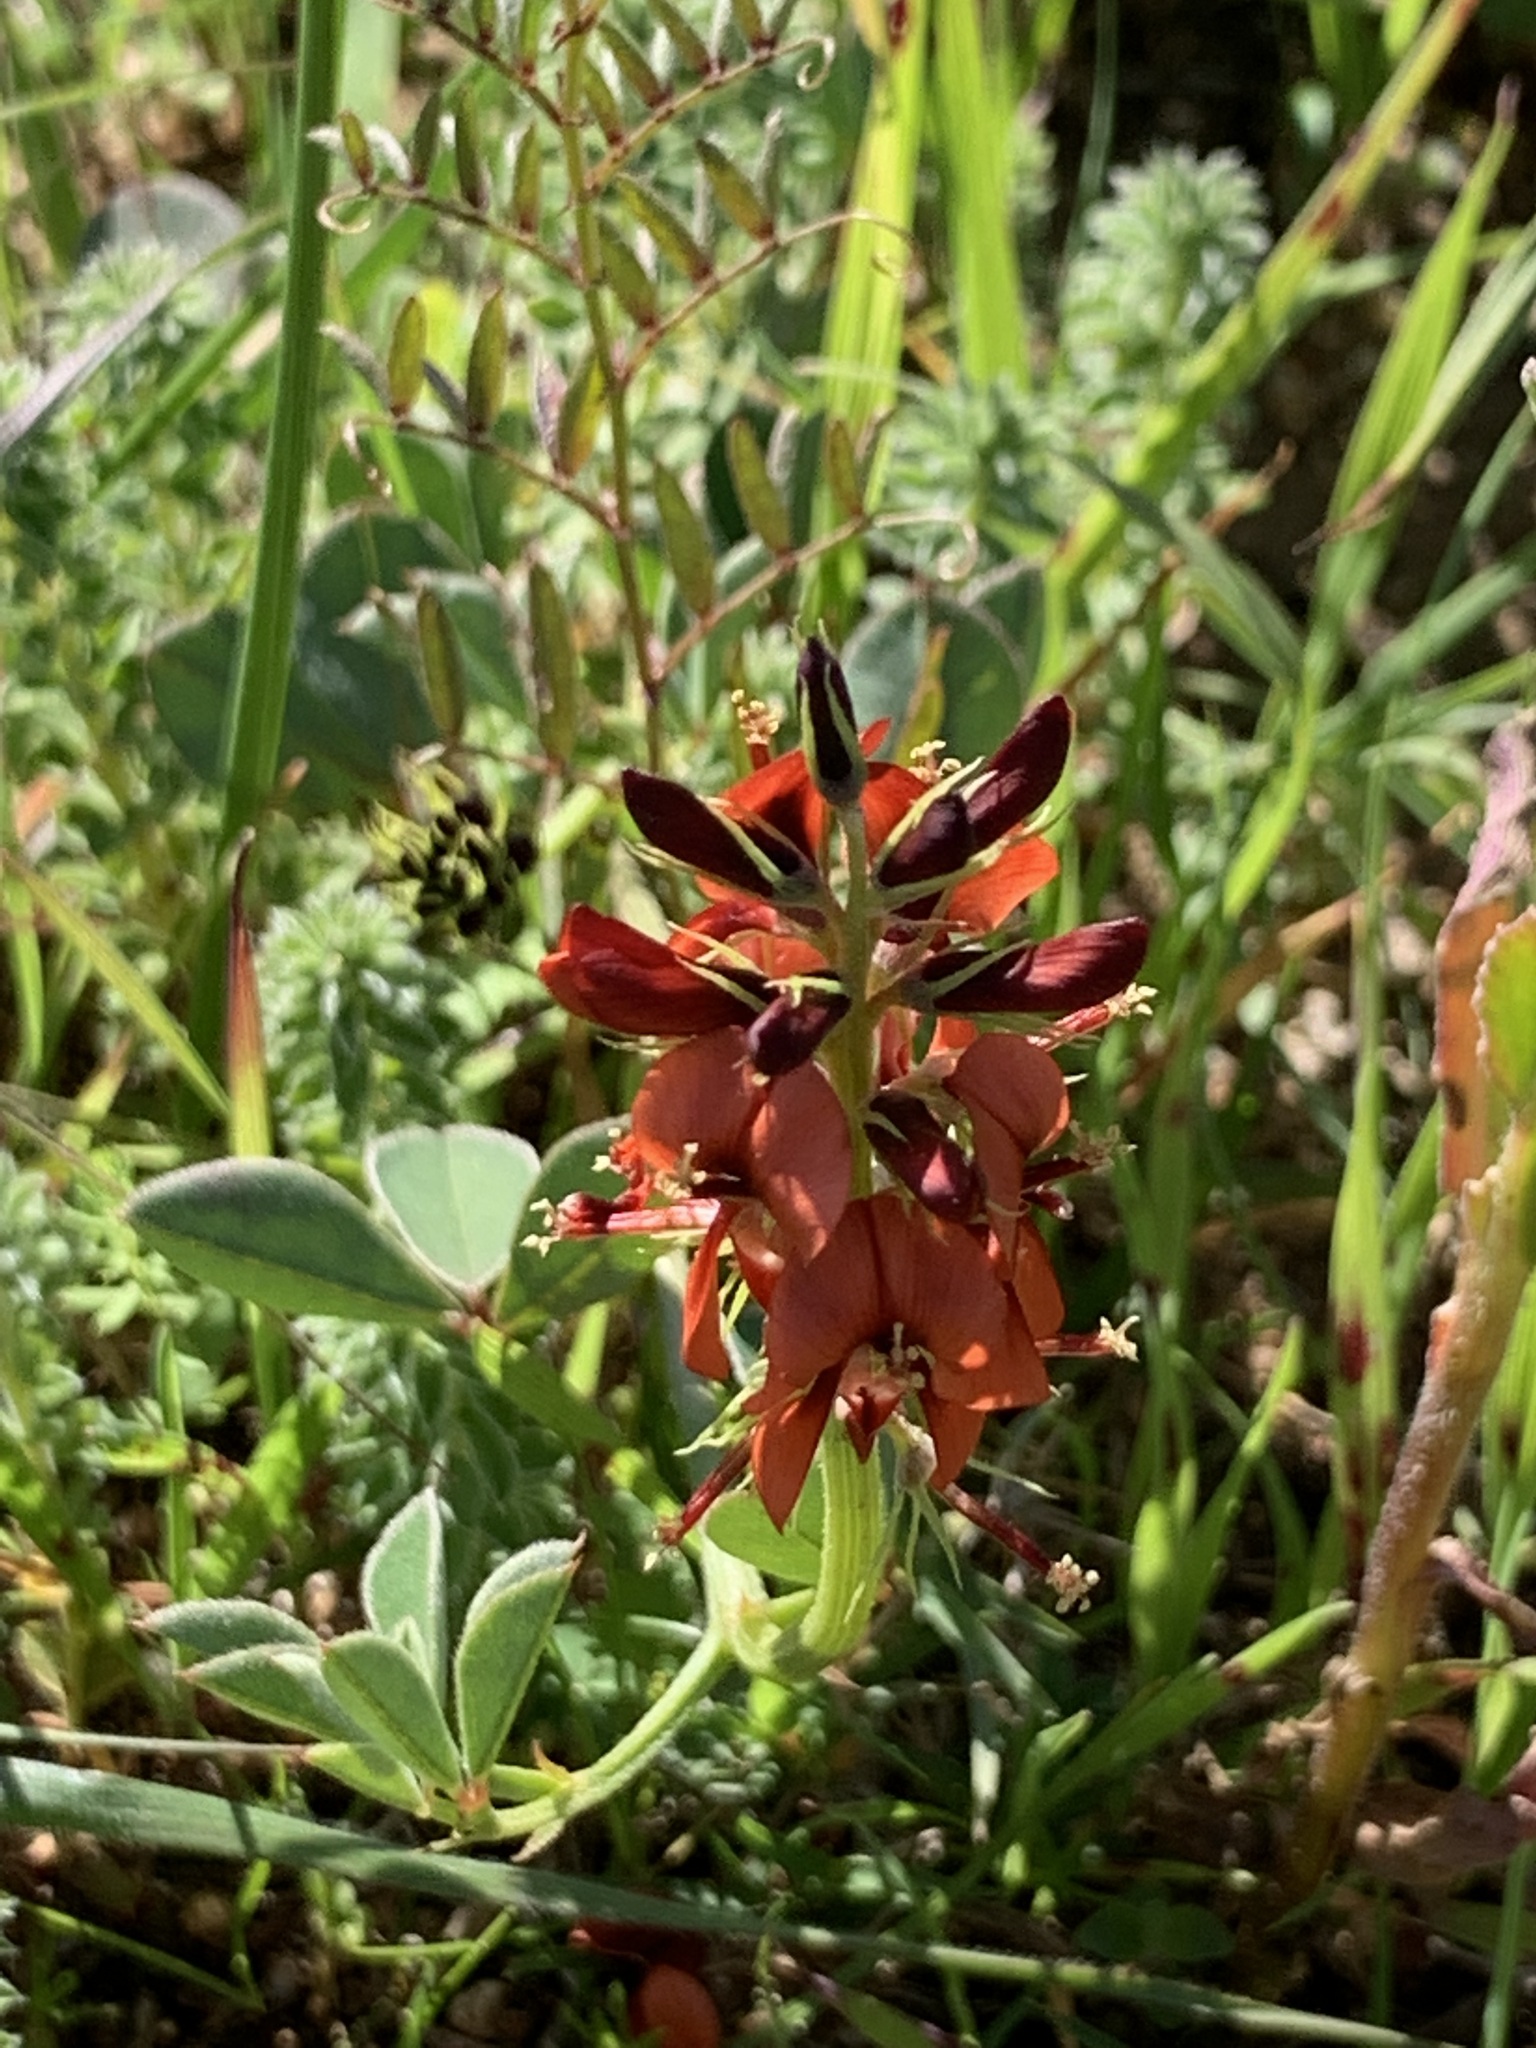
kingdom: Plantae
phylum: Tracheophyta
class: Magnoliopsida
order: Fabales
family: Fabaceae
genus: Indigofera
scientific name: Indigofera discolor
